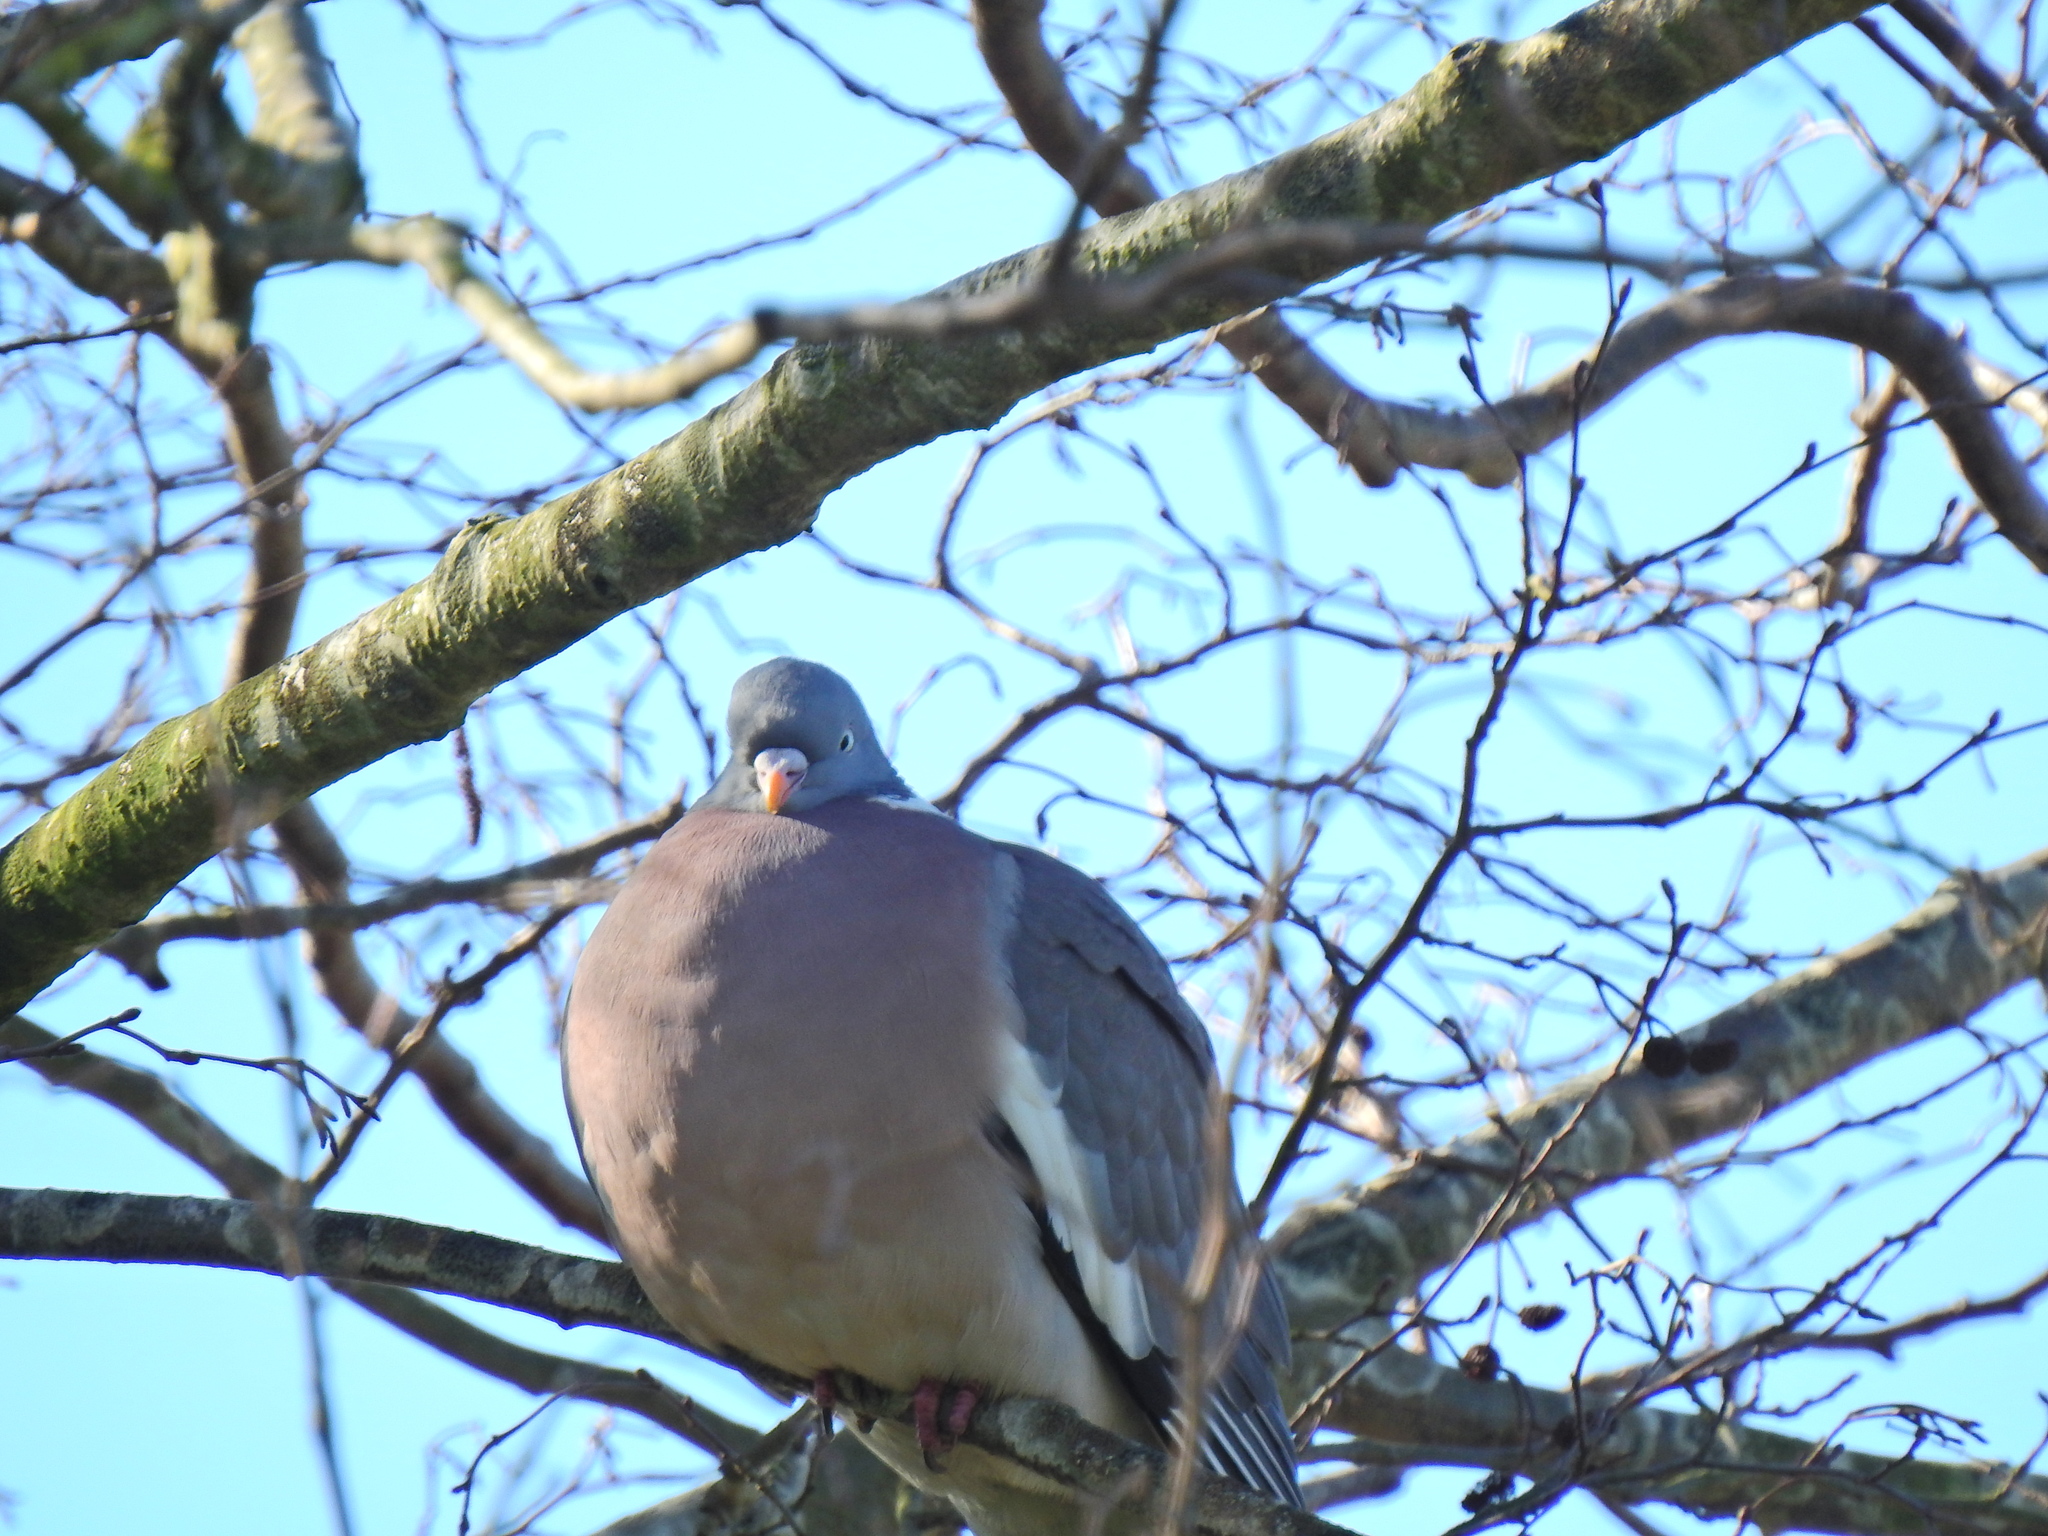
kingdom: Animalia
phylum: Chordata
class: Aves
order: Columbiformes
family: Columbidae
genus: Columba
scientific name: Columba palumbus
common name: Common wood pigeon
